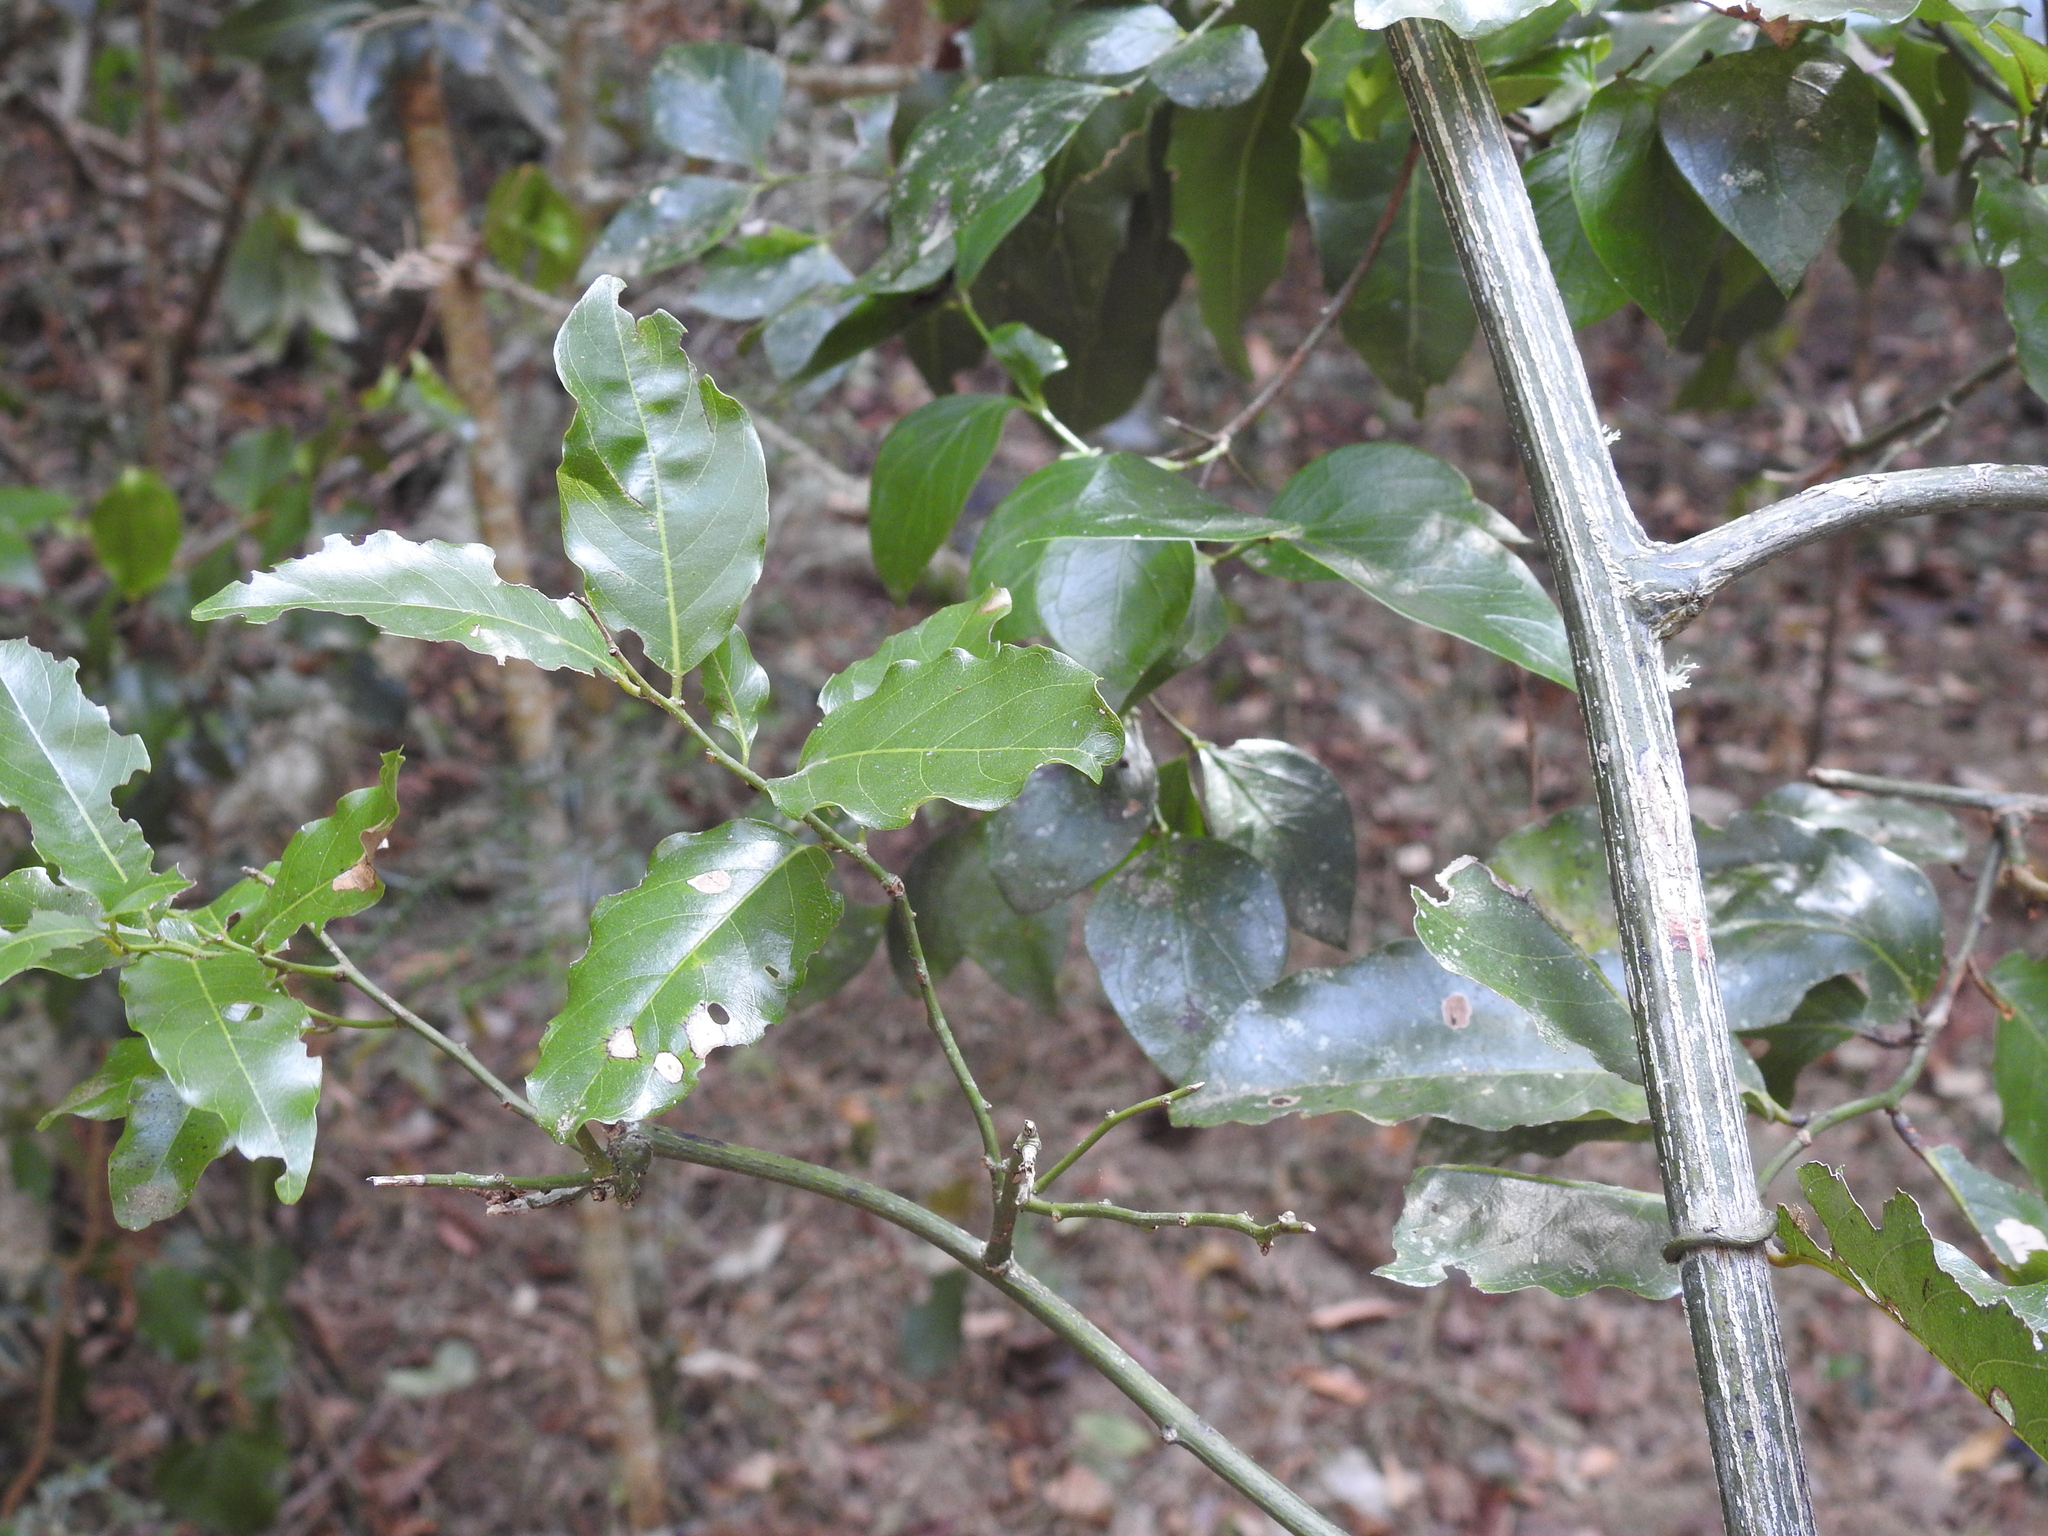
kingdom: Plantae
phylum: Tracheophyta
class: Magnoliopsida
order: Rosales
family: Rhamnaceae
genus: Ventilago
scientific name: Ventilago pubiflora
